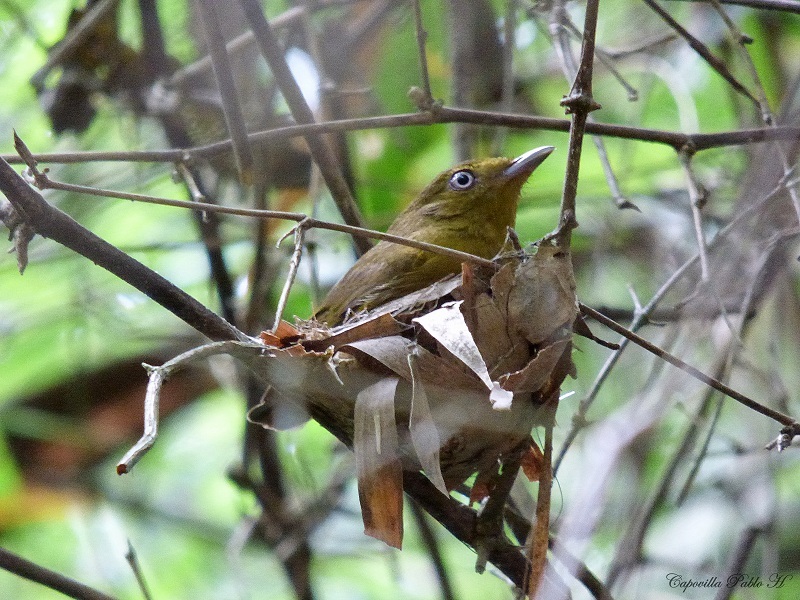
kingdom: Animalia
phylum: Chordata
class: Aves
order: Passeriformes
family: Pipridae
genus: Pipra
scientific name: Pipra fasciicauda
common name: Band-tailed manakin
